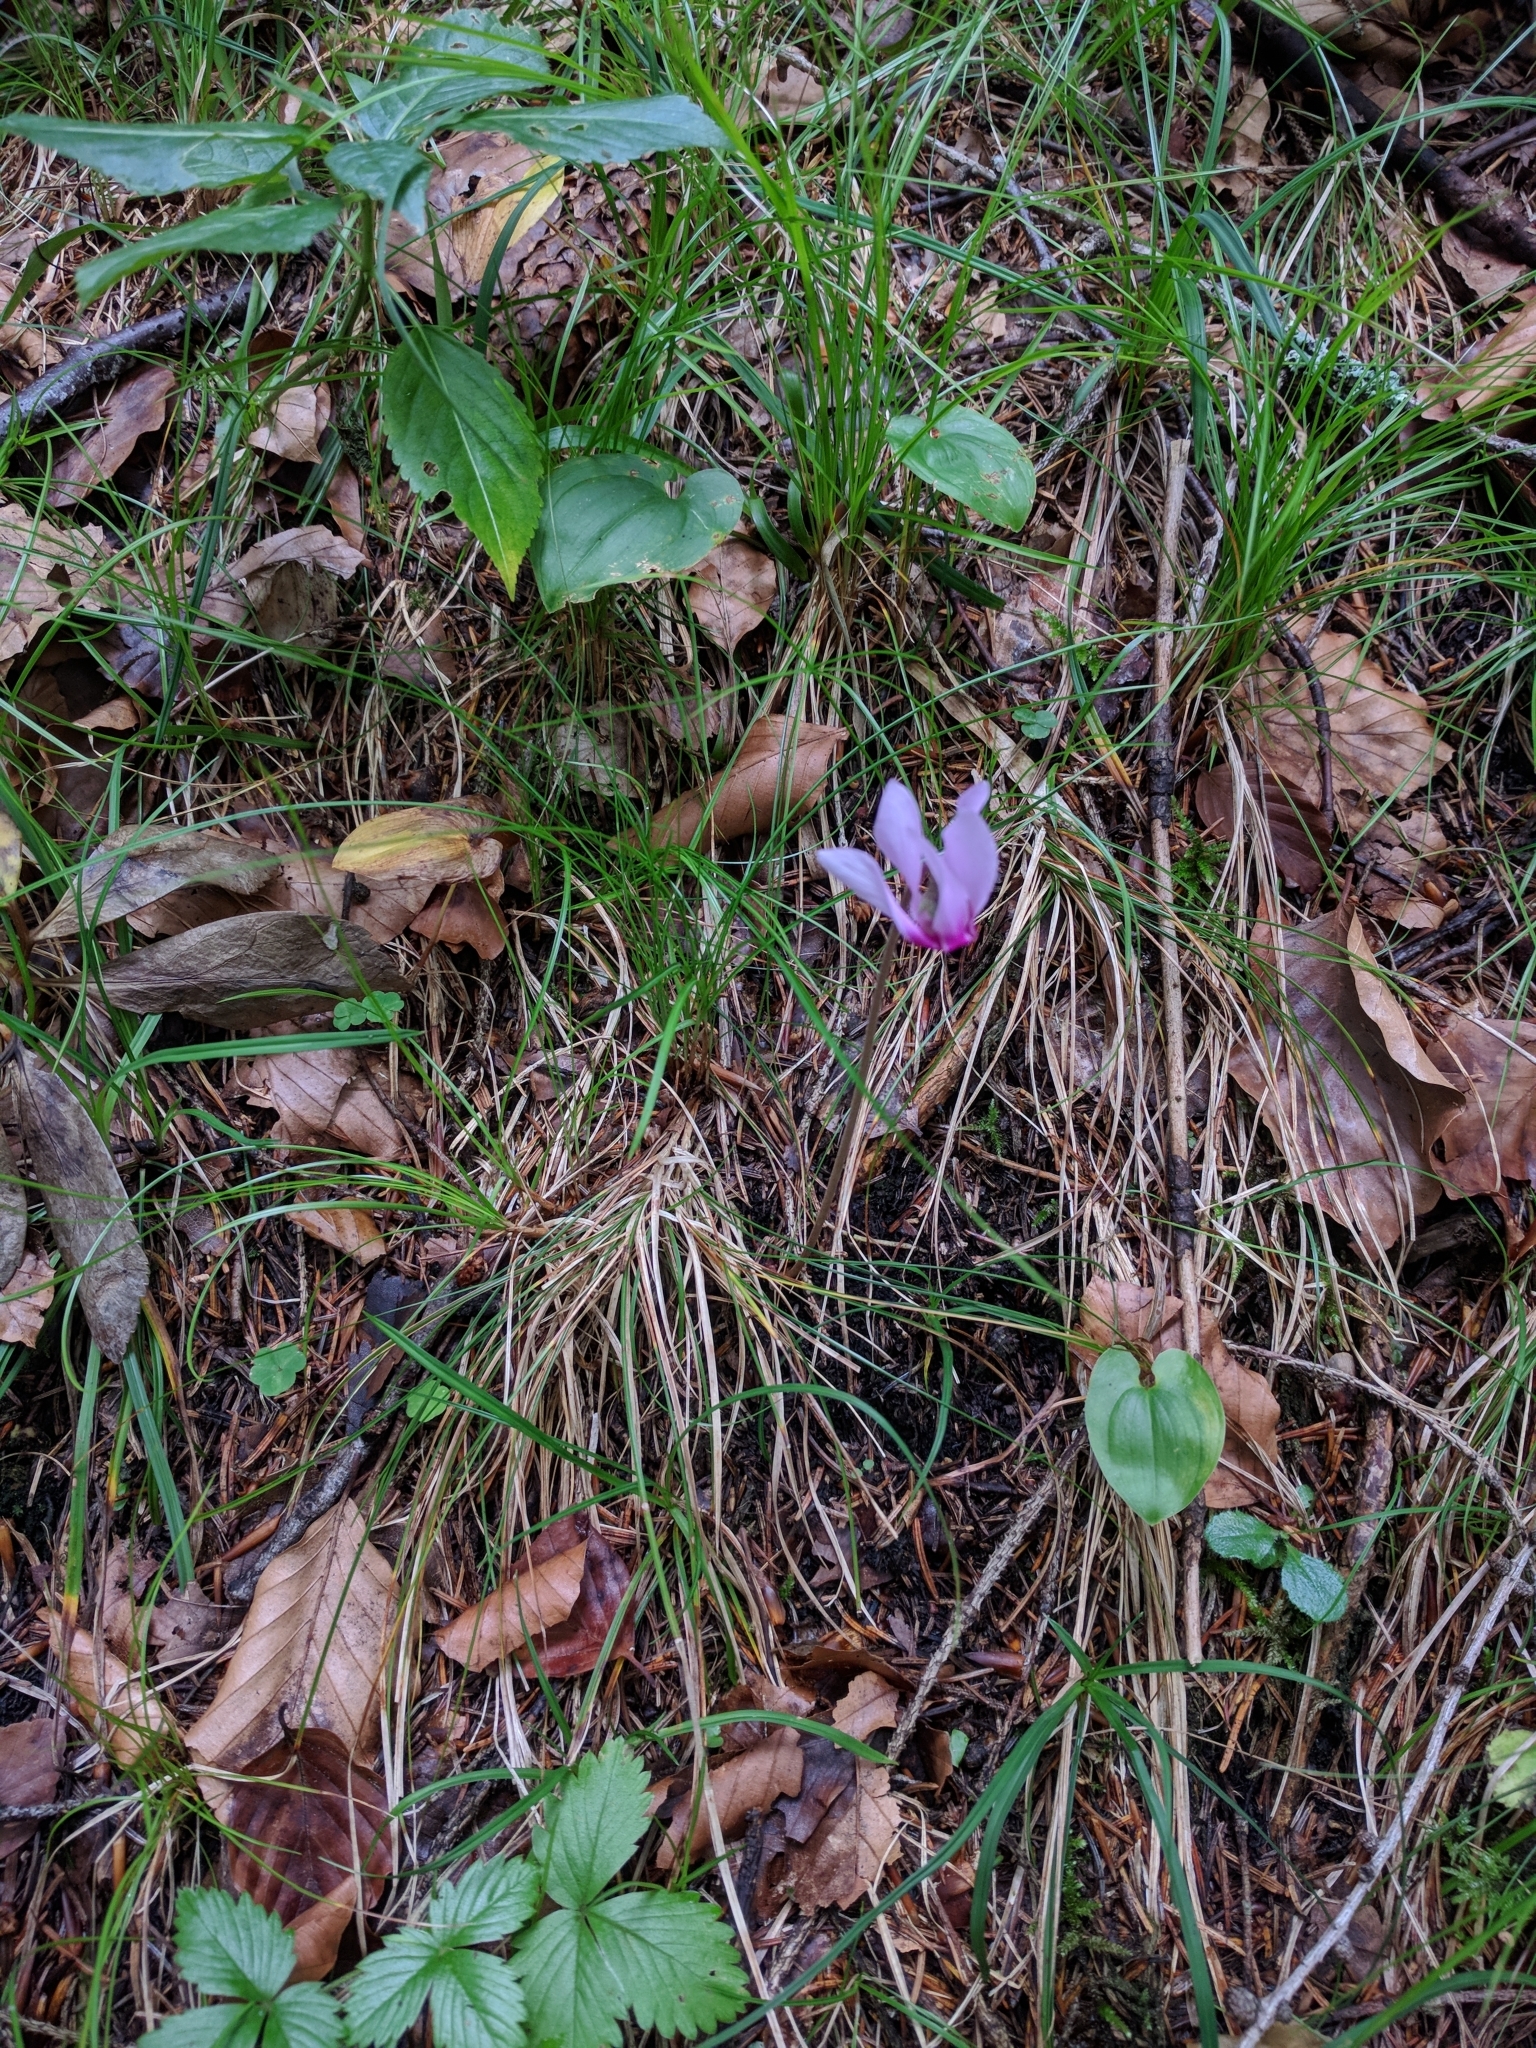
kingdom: Plantae
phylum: Tracheophyta
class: Magnoliopsida
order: Ericales
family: Primulaceae
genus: Cyclamen
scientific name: Cyclamen purpurascens
